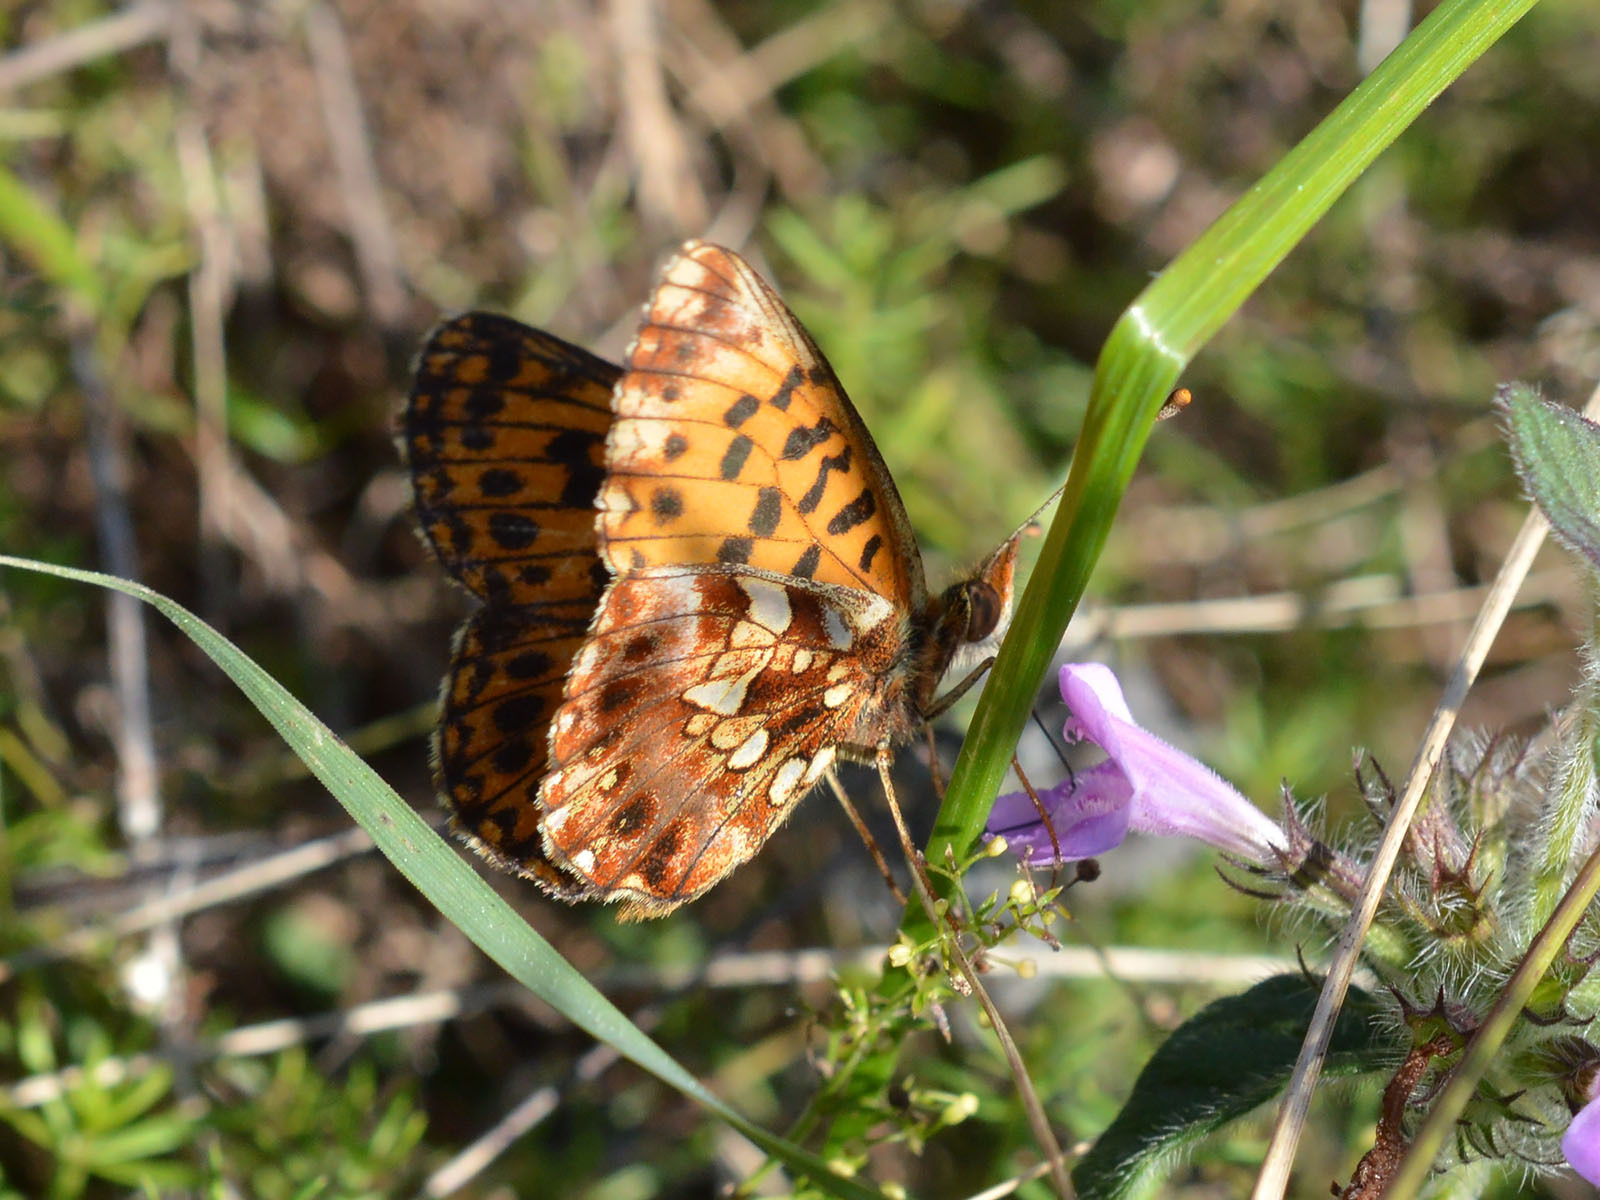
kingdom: Animalia
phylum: Arthropoda
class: Insecta
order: Lepidoptera
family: Nymphalidae
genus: Boloria
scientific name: Boloria dia
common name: Weaver's fritillary
